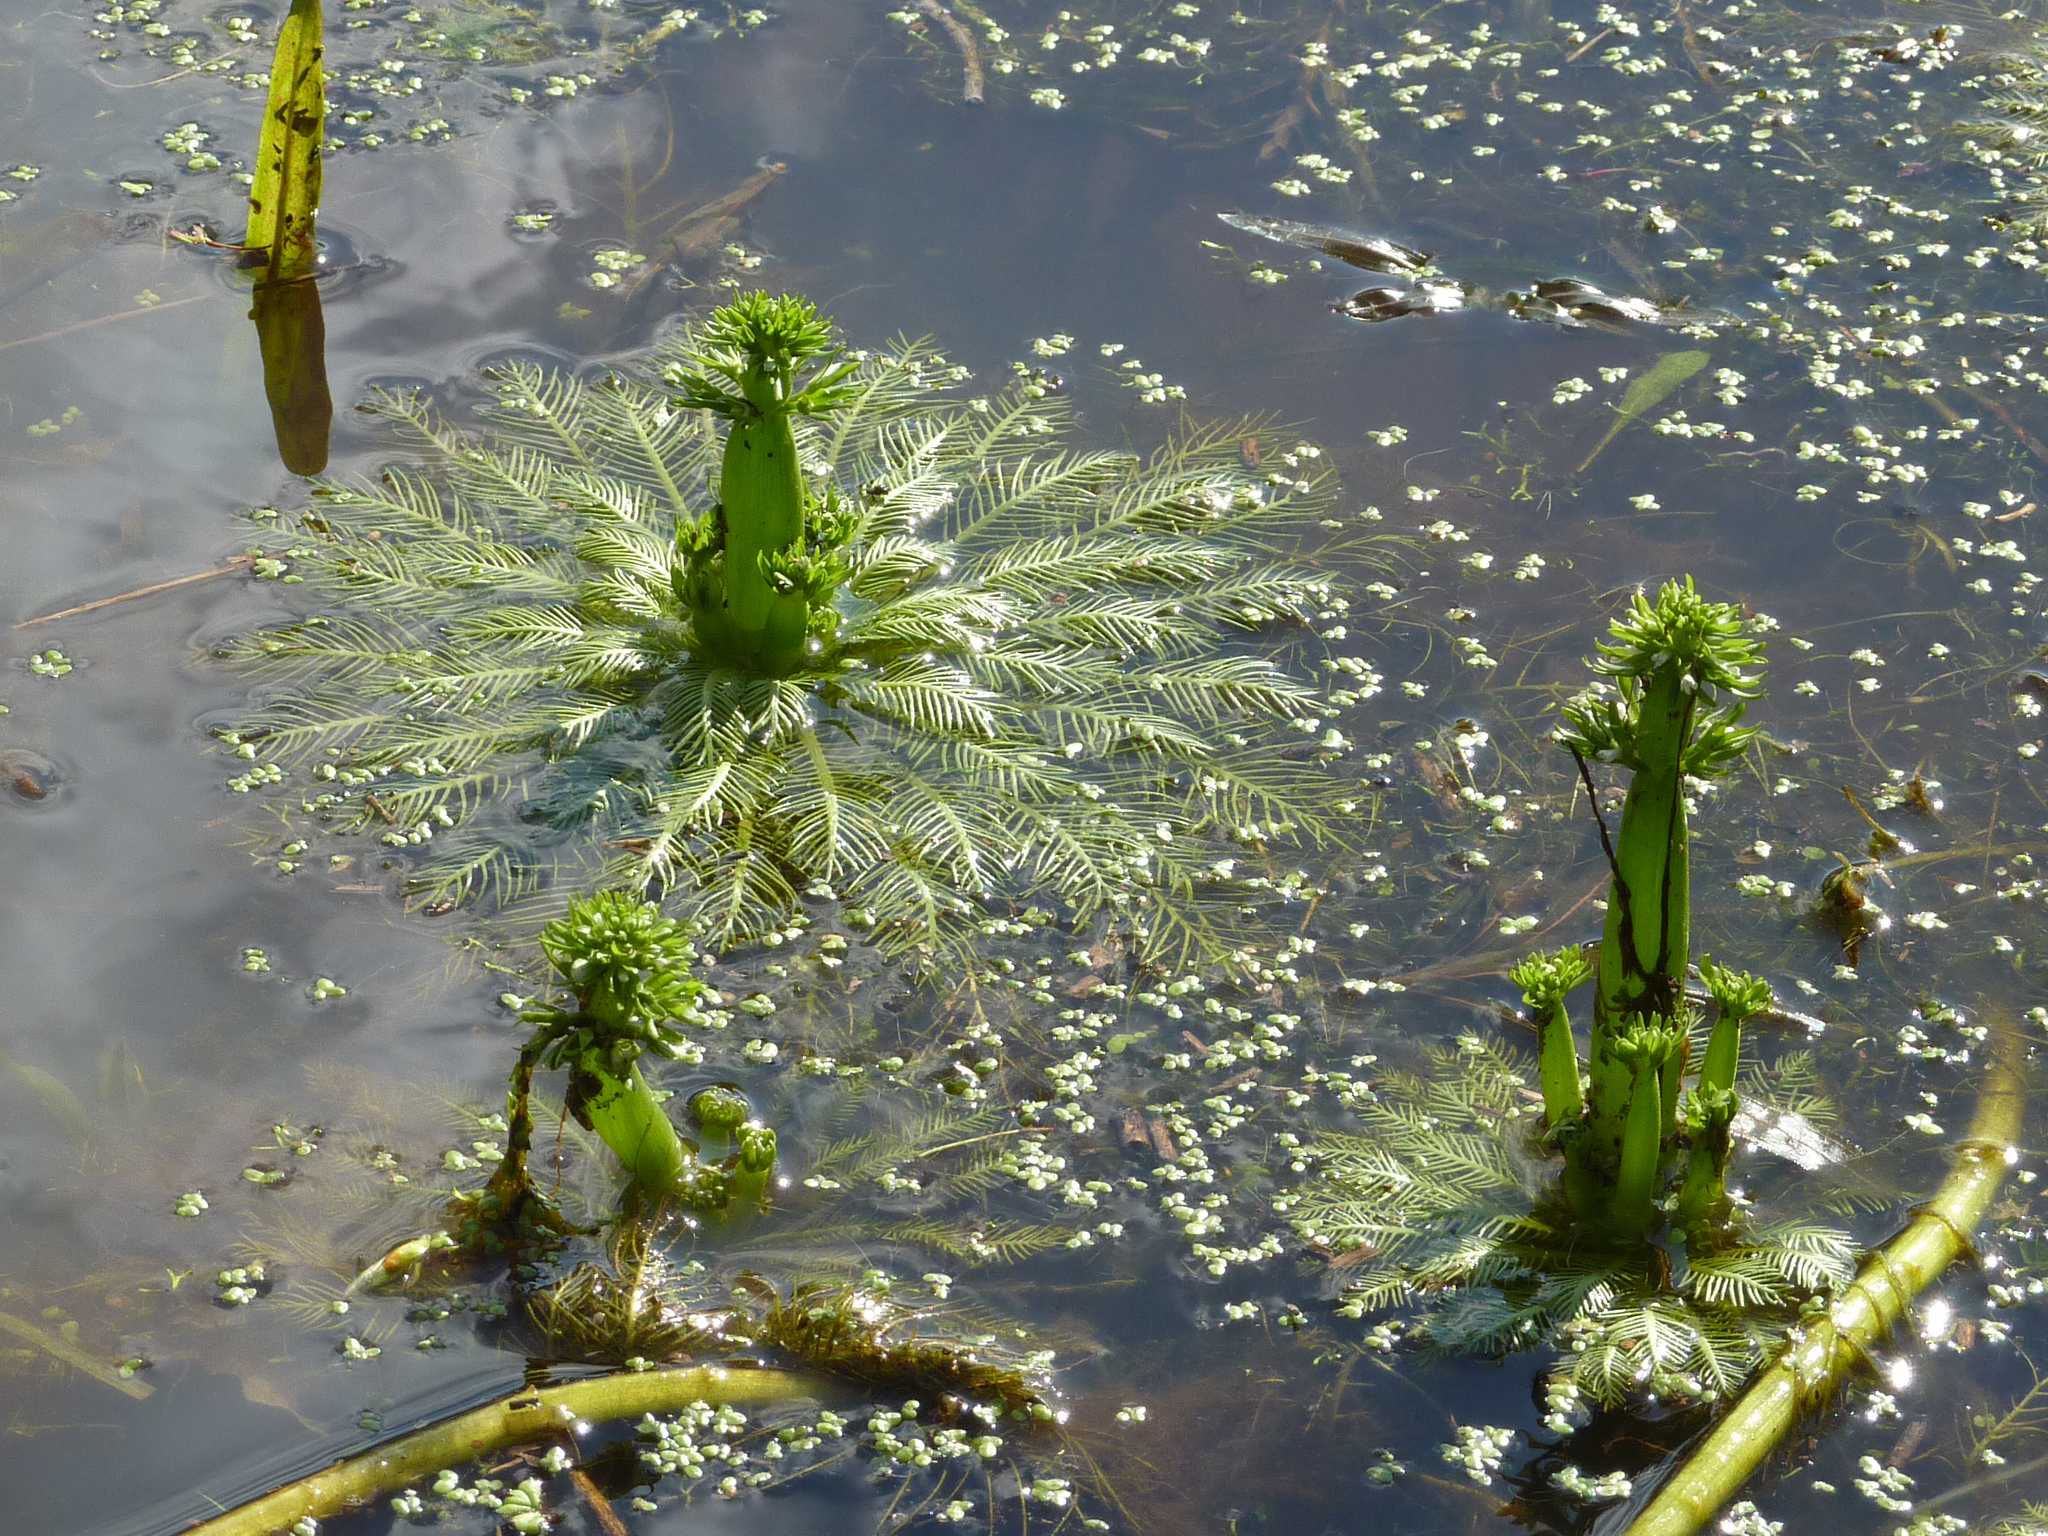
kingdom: Plantae
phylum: Tracheophyta
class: Magnoliopsida
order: Ericales
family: Primulaceae
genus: Hottonia
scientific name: Hottonia inflata
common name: American featherfoil
